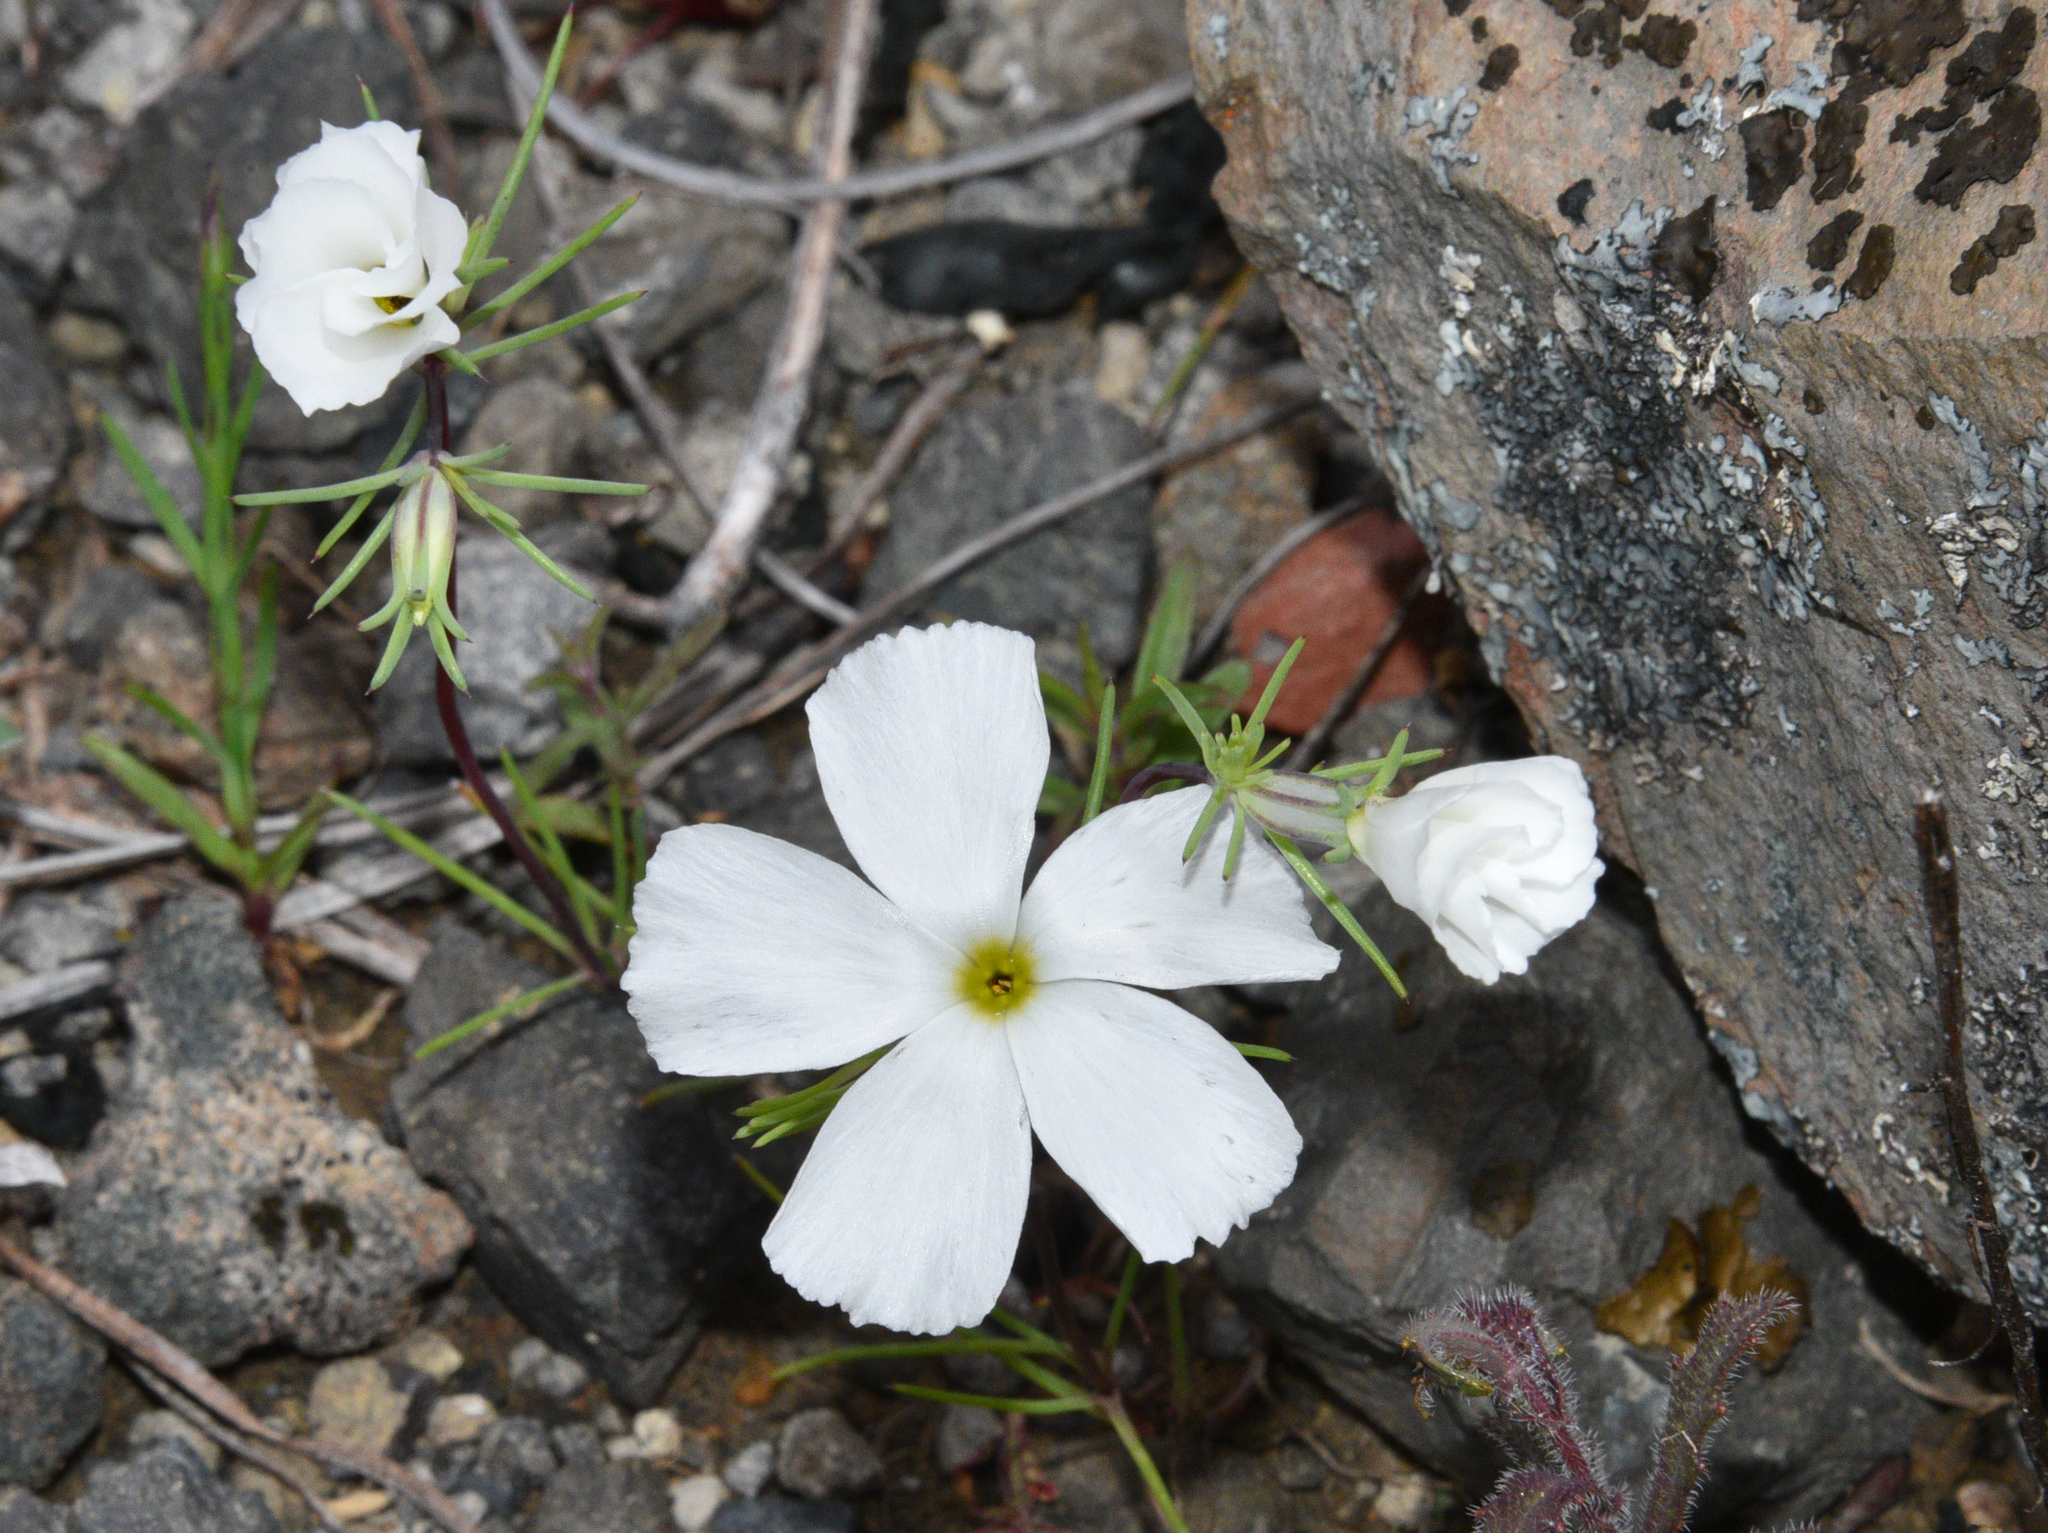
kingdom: Plantae
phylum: Tracheophyta
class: Magnoliopsida
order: Ericales
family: Polemoniaceae
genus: Linanthus
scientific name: Linanthus dichotomus
